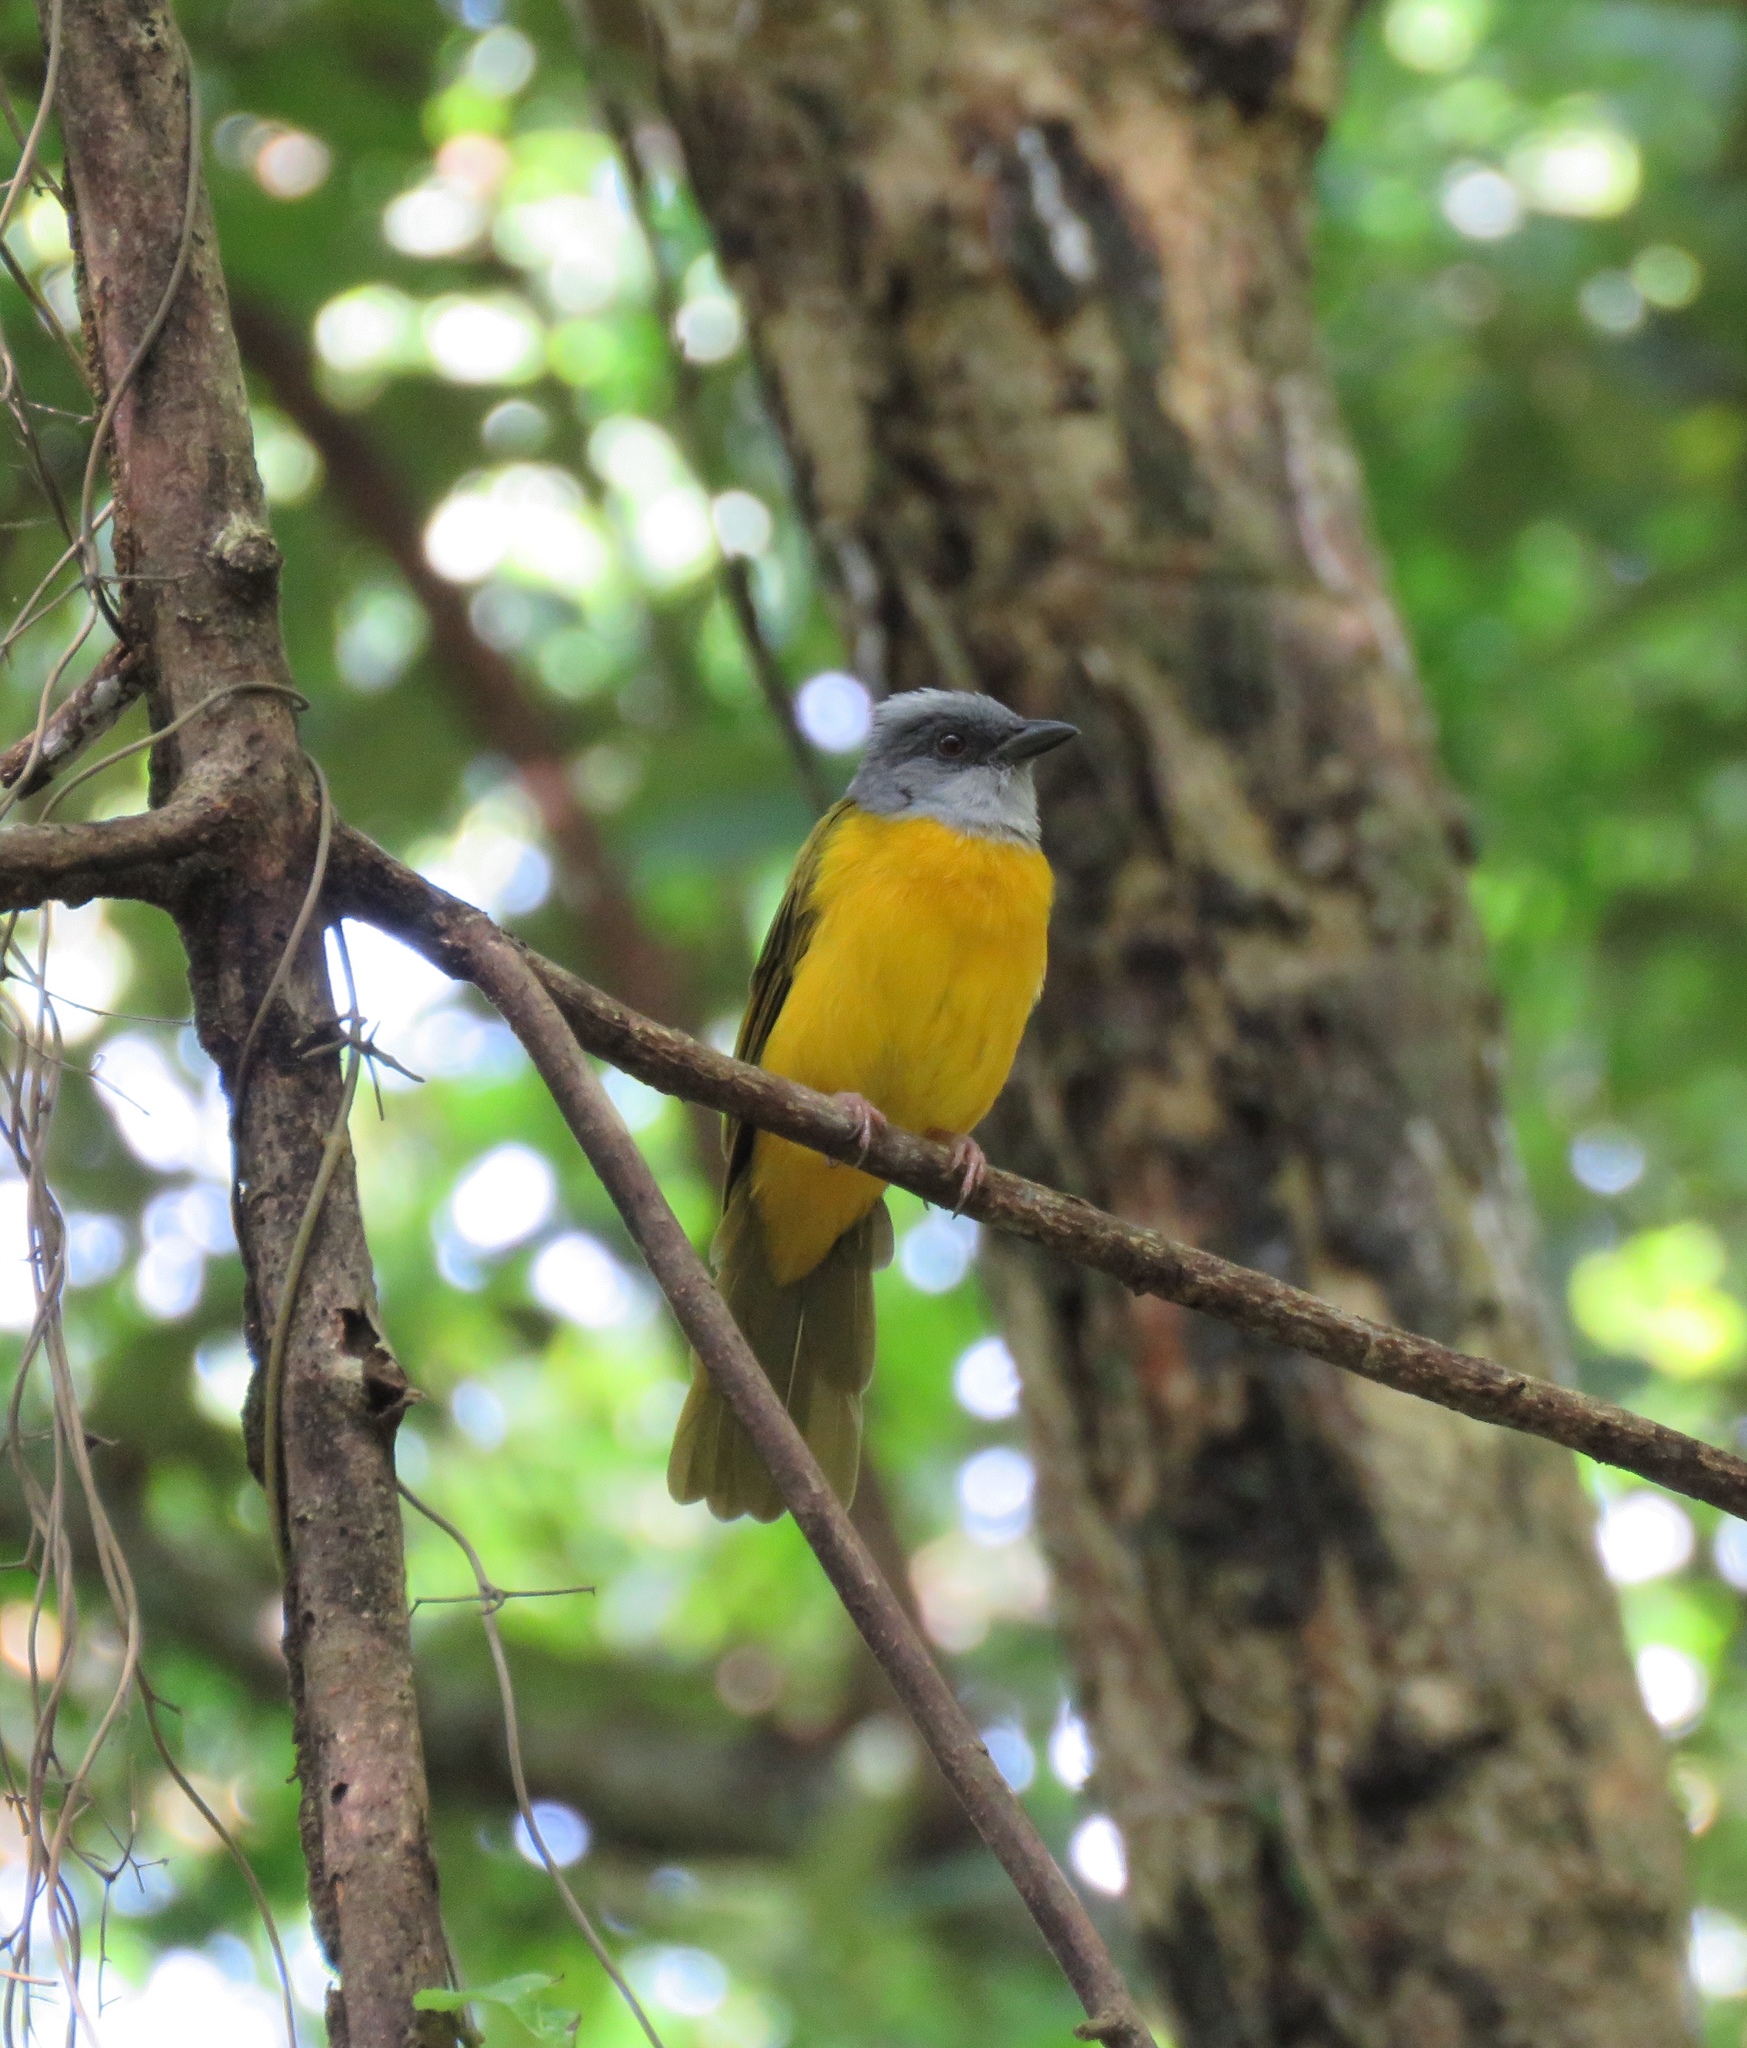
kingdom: Animalia
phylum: Chordata
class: Aves
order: Passeriformes
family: Thraupidae
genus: Eucometis
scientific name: Eucometis penicillata
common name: Grey-headed tanager
